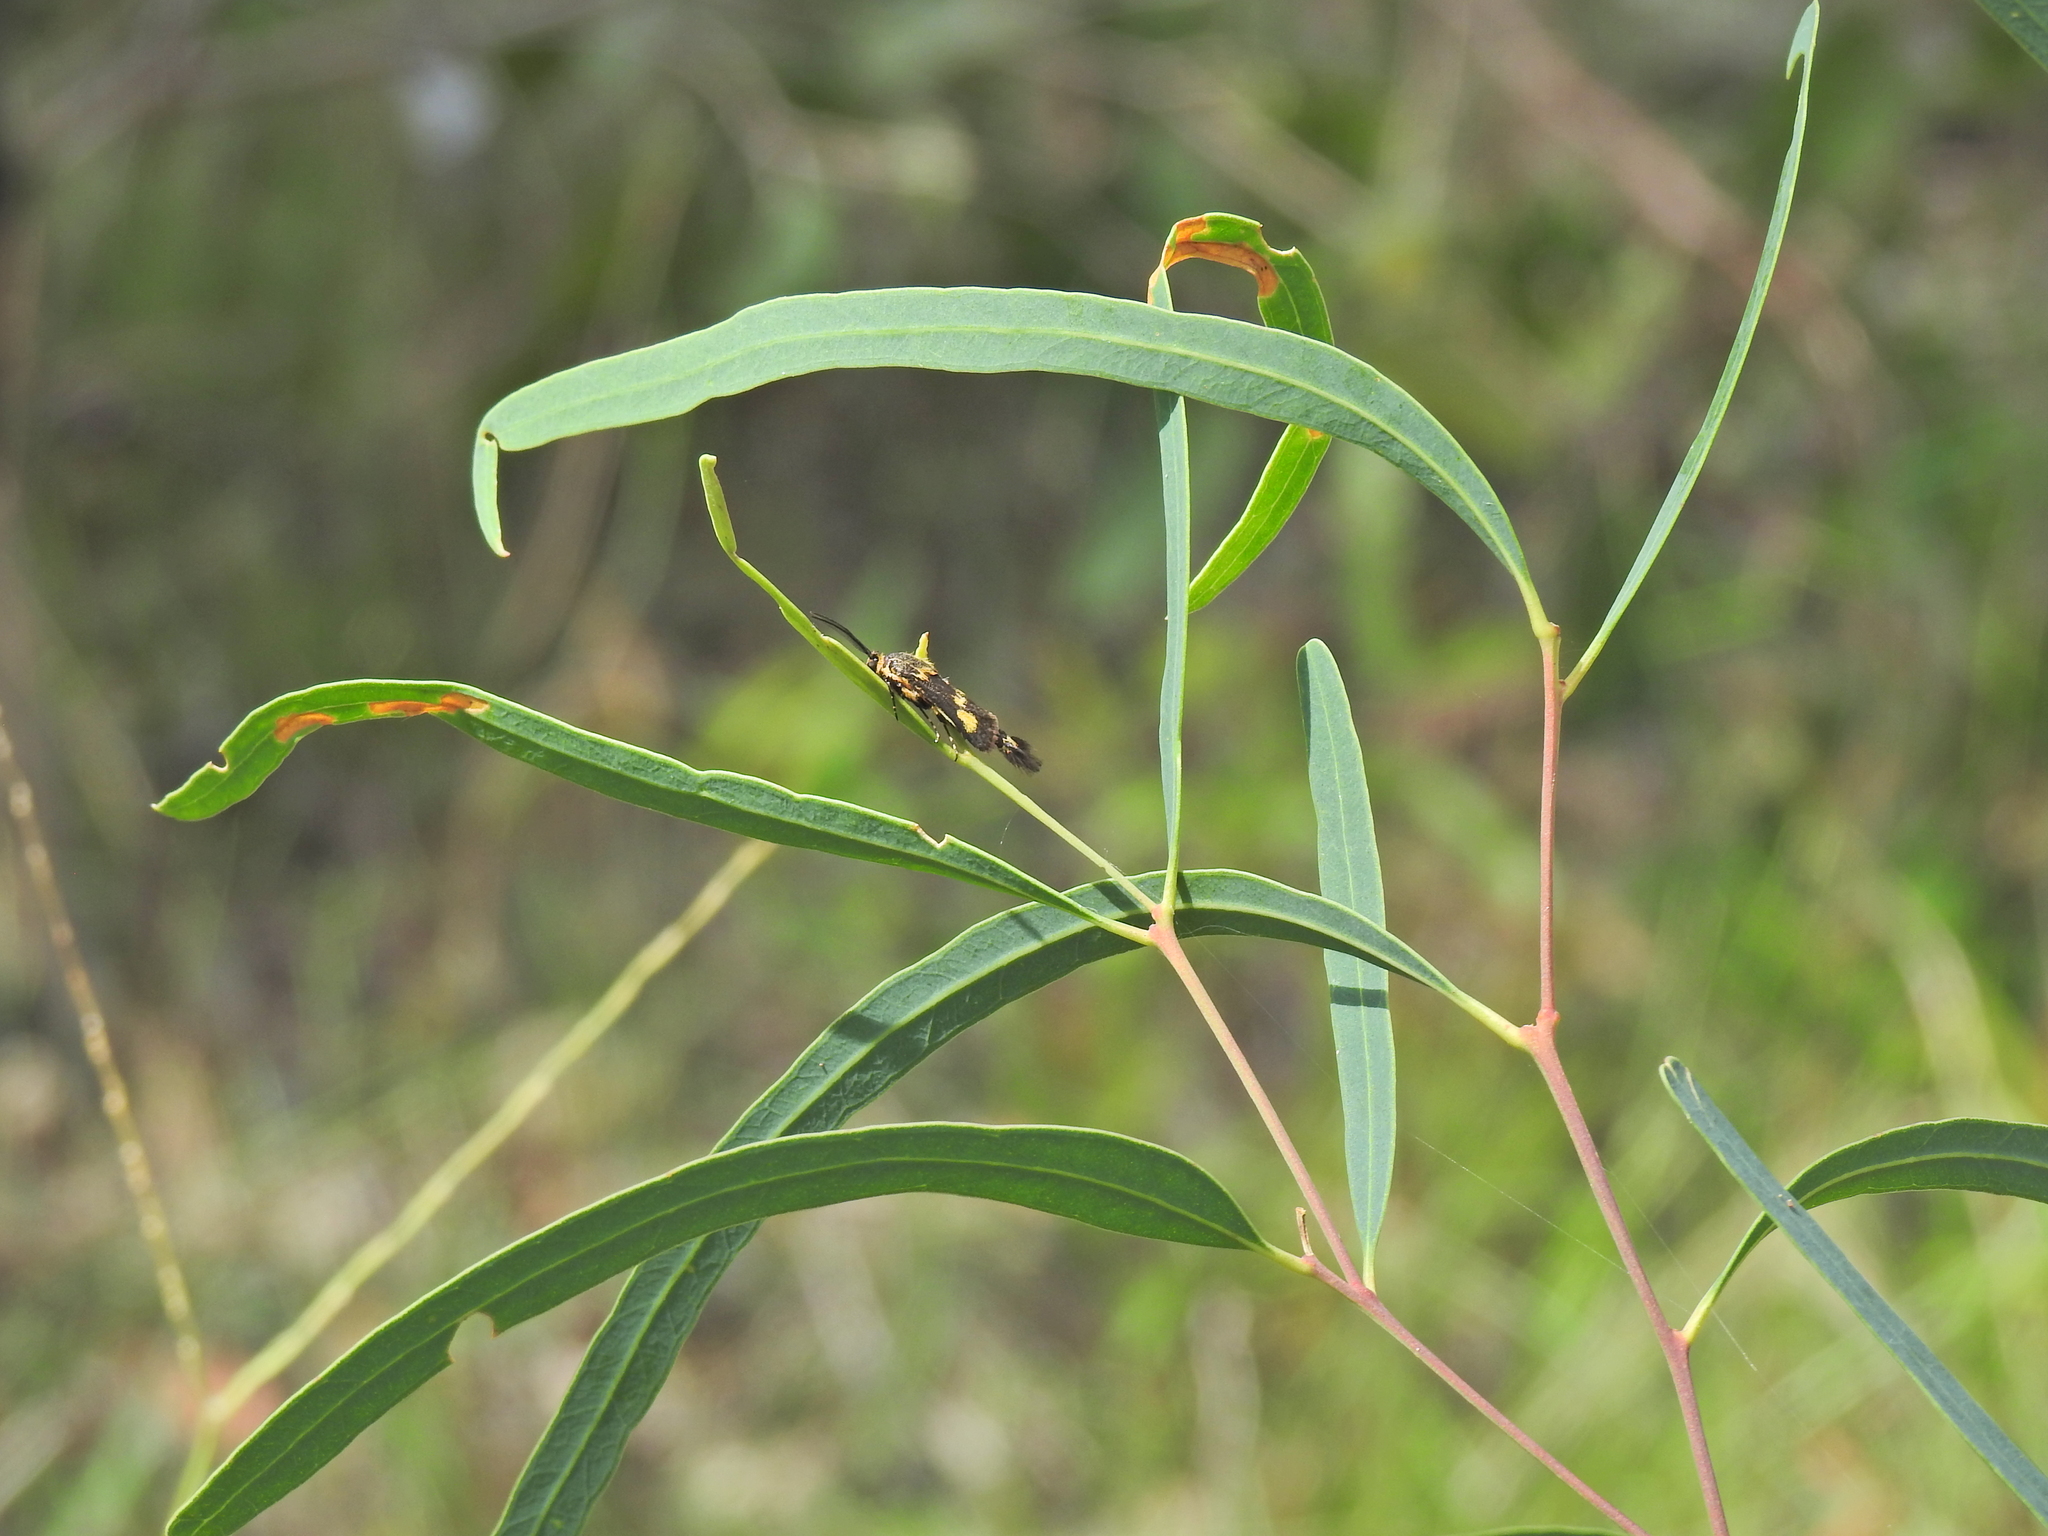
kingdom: Animalia
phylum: Arthropoda
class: Insecta
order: Lepidoptera
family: Brachodidae
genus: Miscera
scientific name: Miscera homotona
